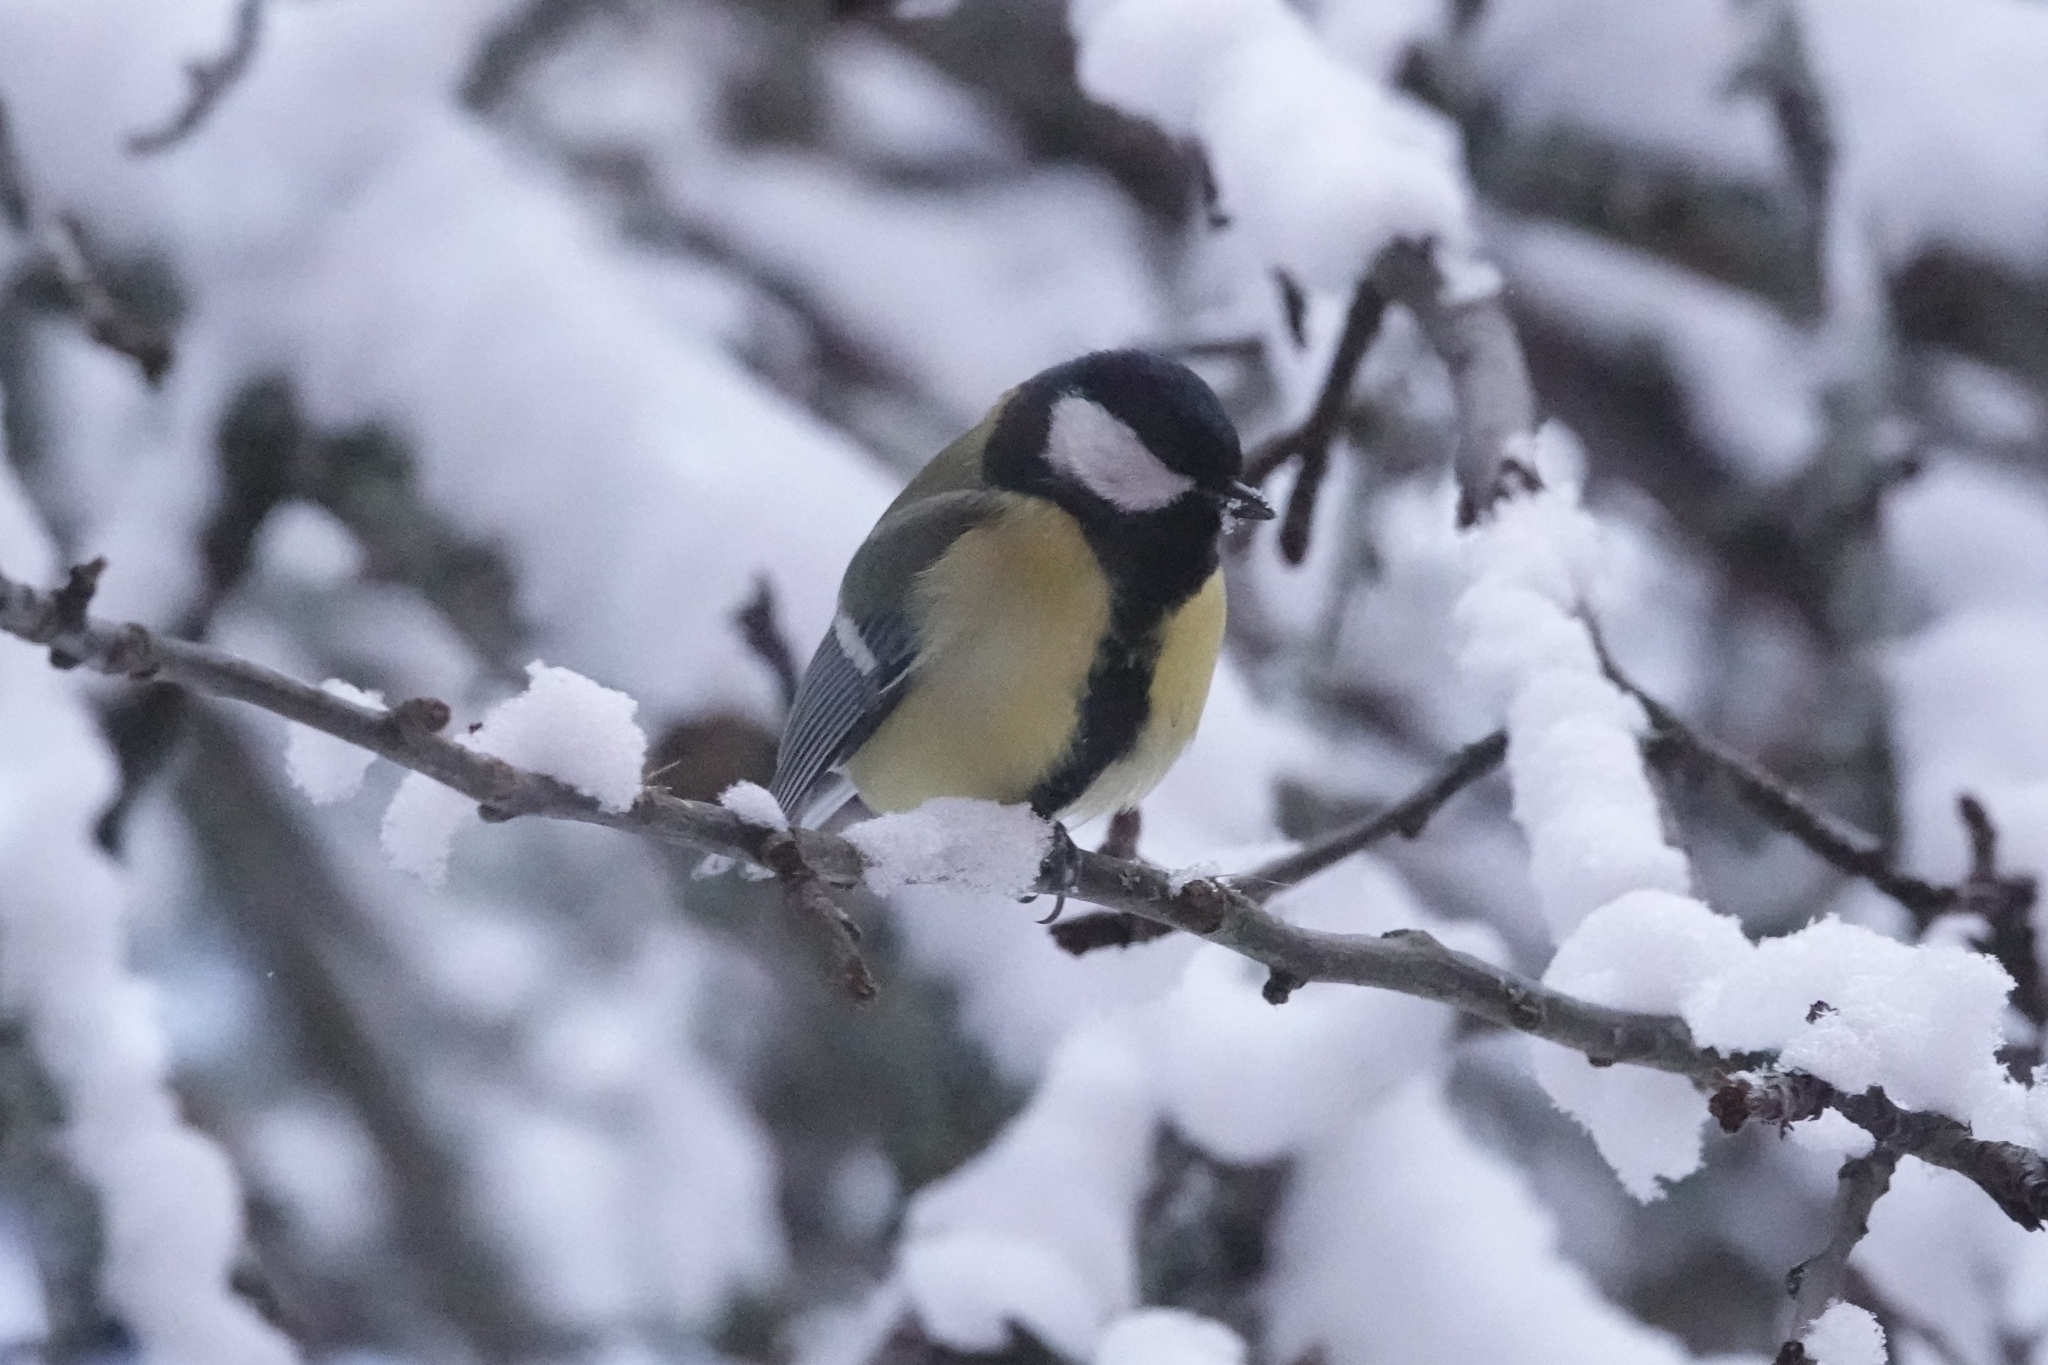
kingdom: Animalia
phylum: Chordata
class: Aves
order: Passeriformes
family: Paridae
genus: Parus
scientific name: Parus major
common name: Great tit
